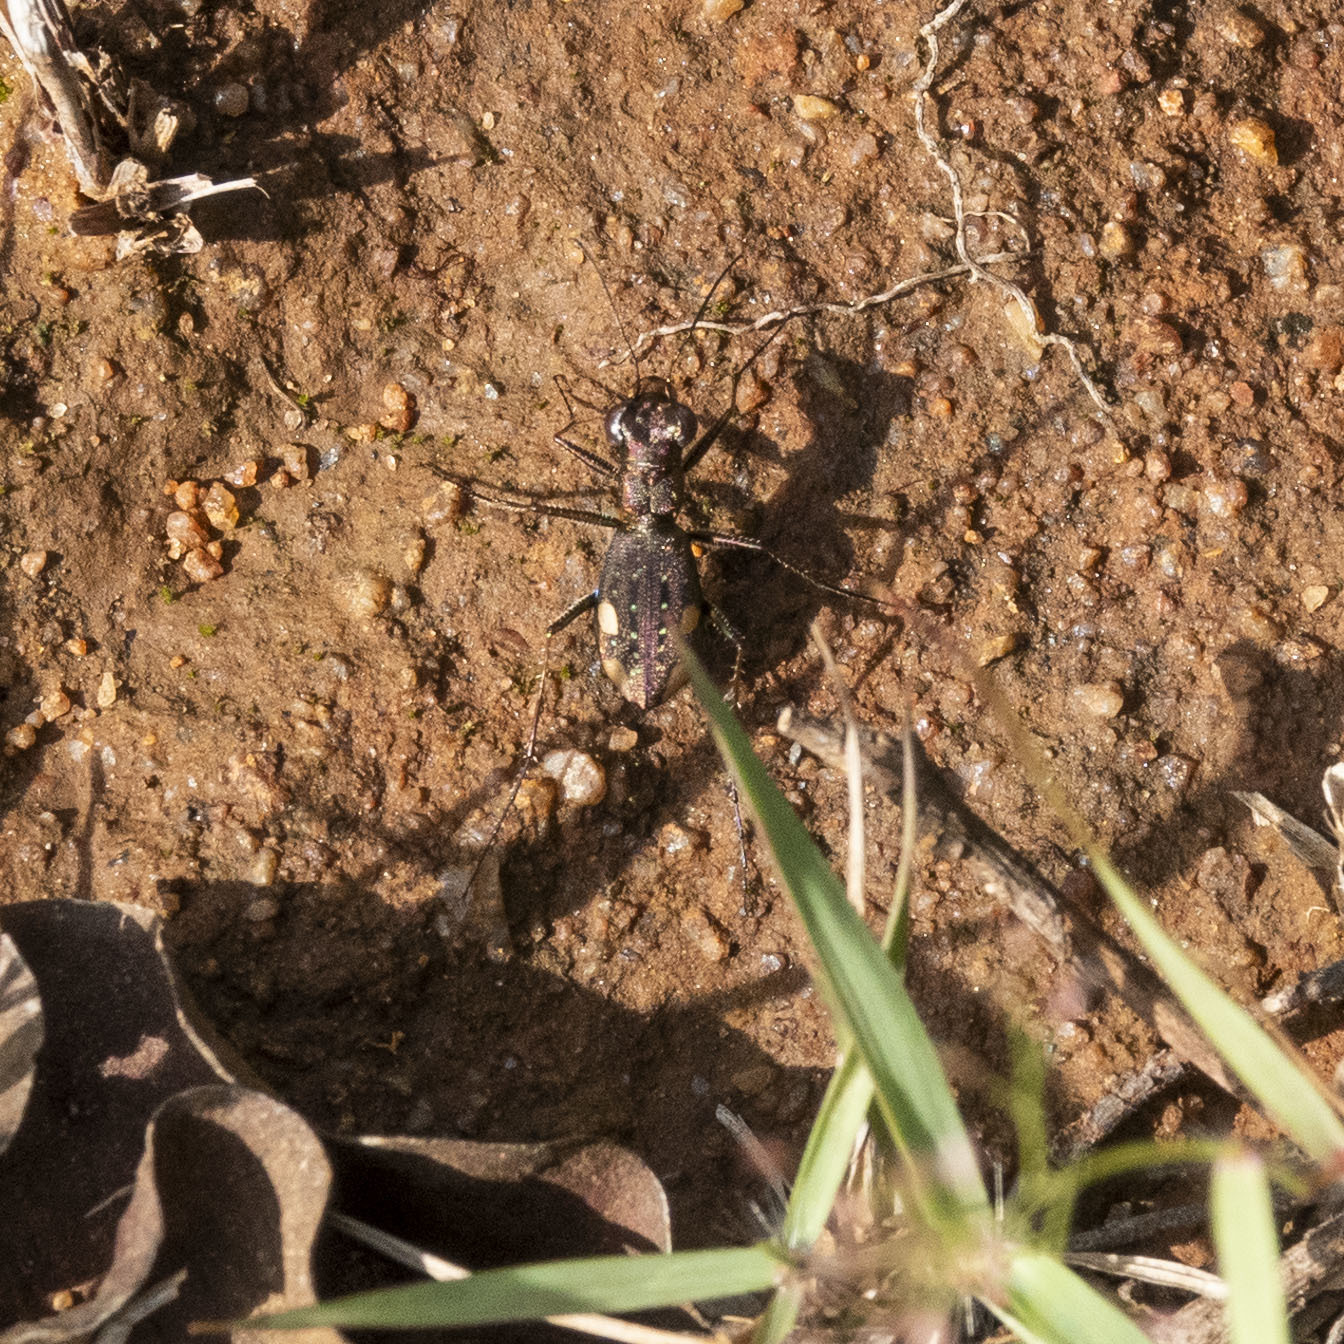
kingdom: Animalia
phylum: Arthropoda
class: Insecta
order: Coleoptera
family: Carabidae
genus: Jansenia
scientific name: Jansenia westermanni
